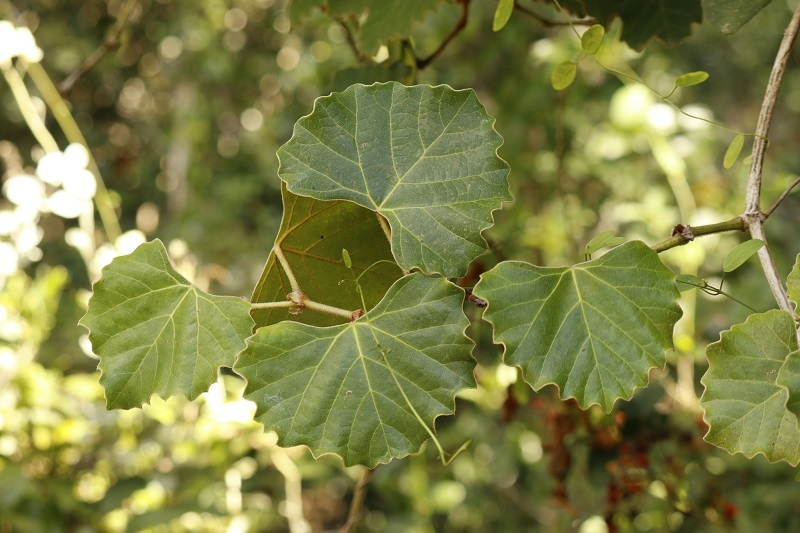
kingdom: Plantae
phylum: Tracheophyta
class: Magnoliopsida
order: Vitales
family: Vitaceae
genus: Rhoicissus
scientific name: Rhoicissus tomentosa
